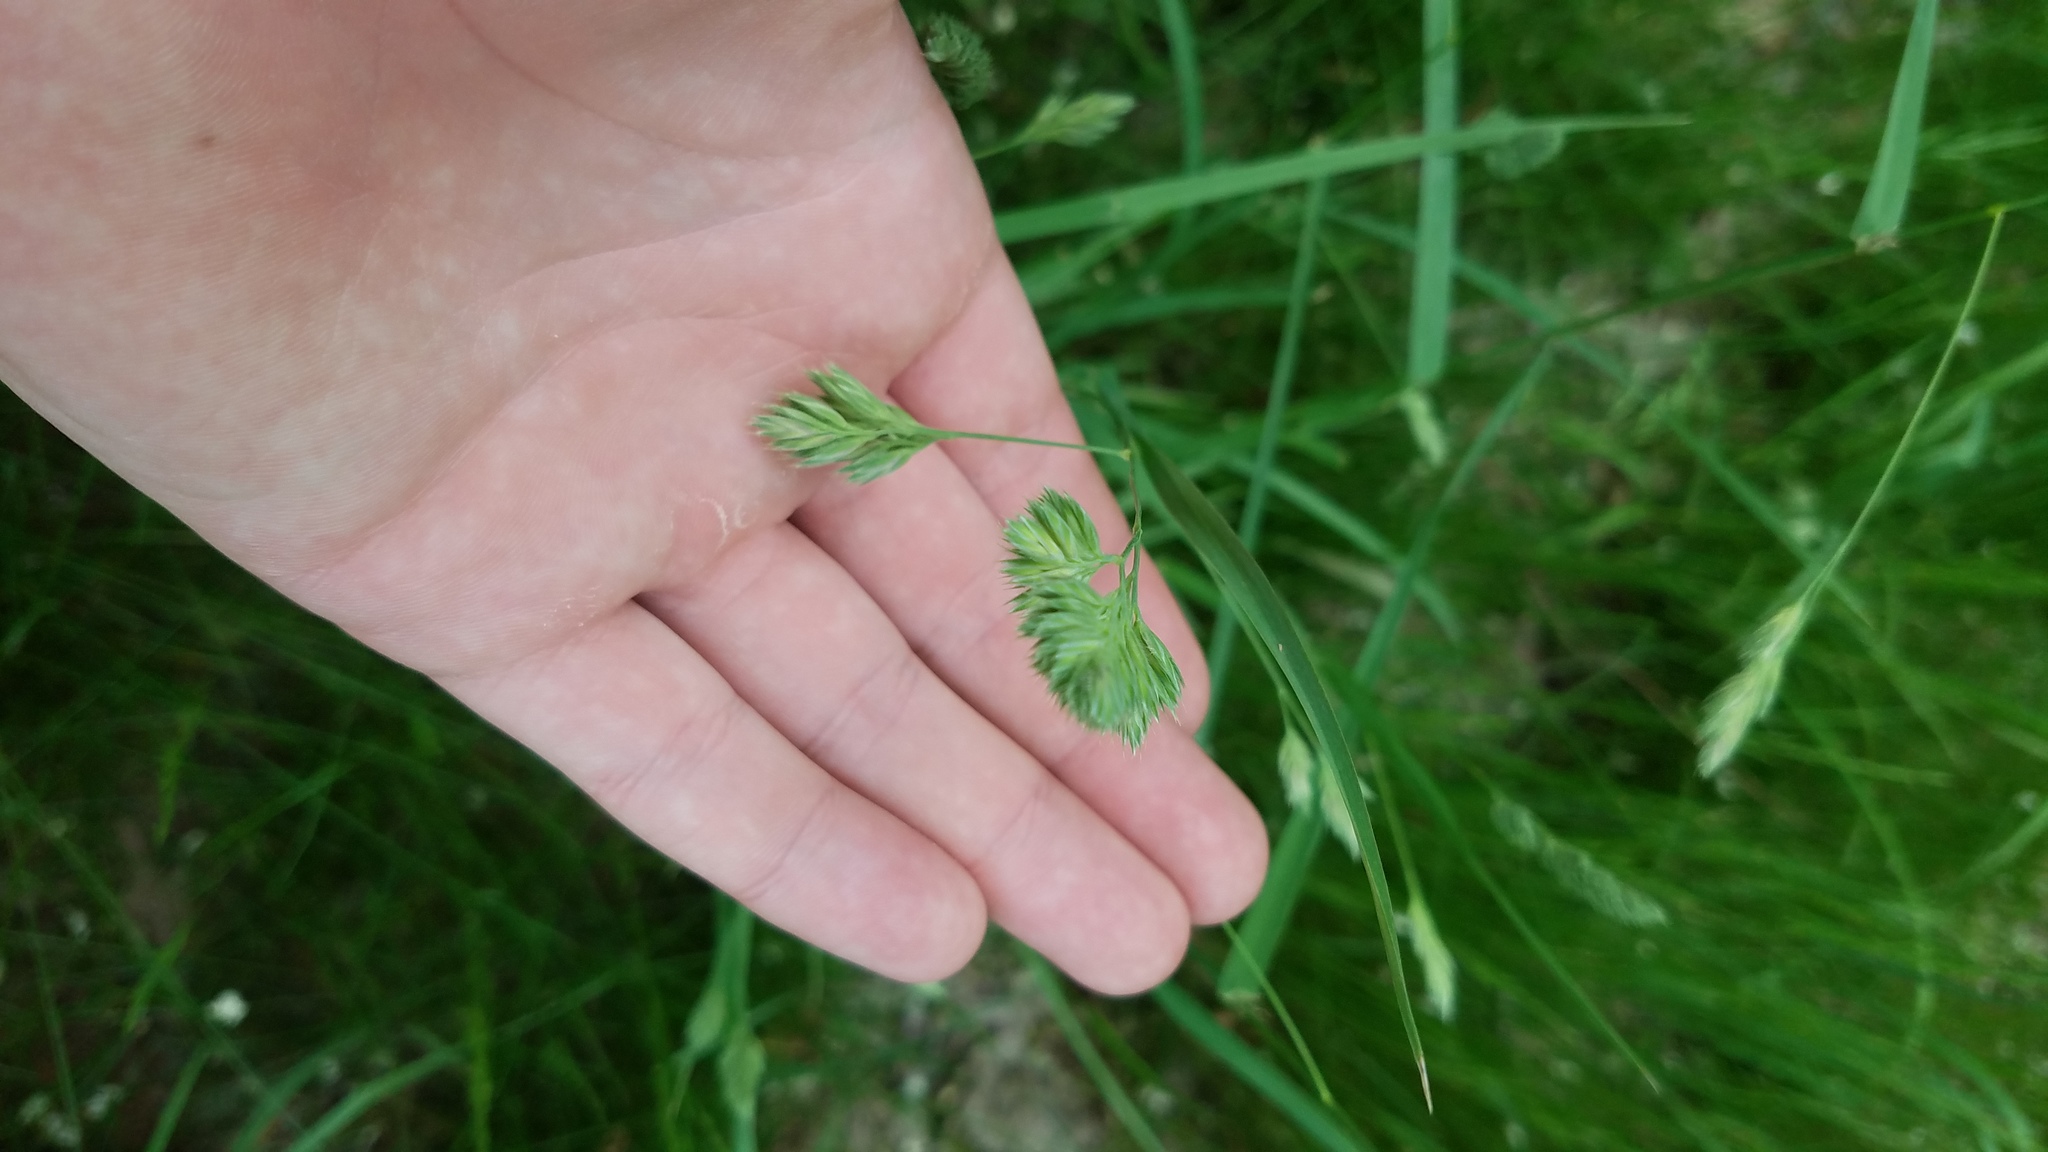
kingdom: Plantae
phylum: Tracheophyta
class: Liliopsida
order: Poales
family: Poaceae
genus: Dactylis
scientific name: Dactylis glomerata
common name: Orchardgrass
